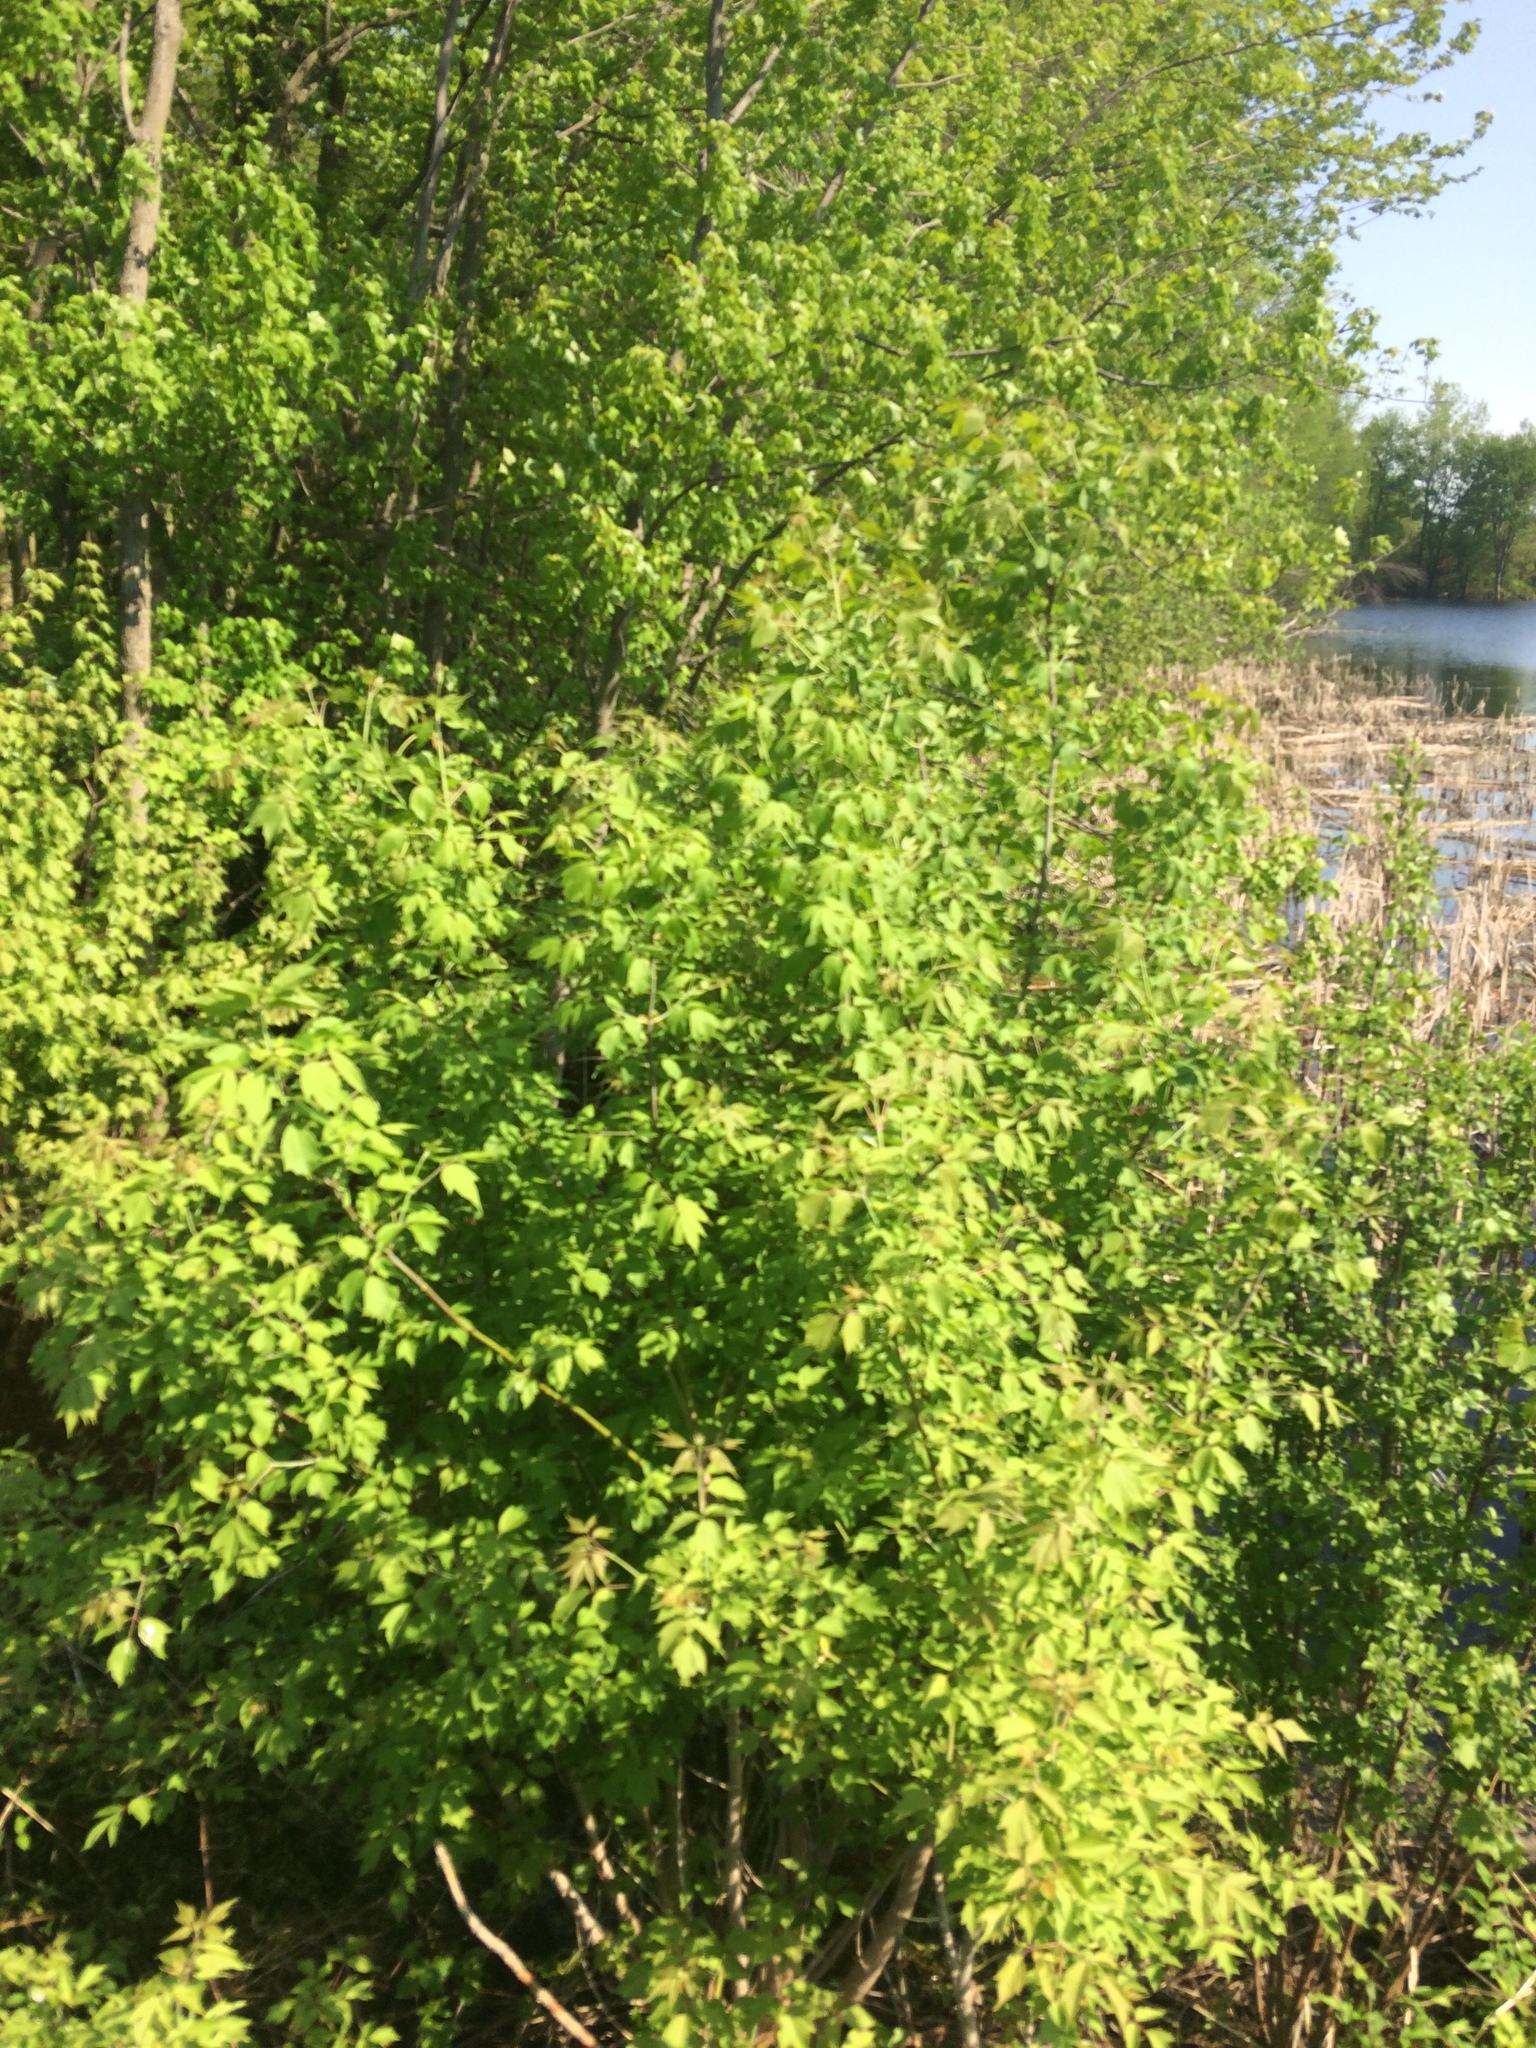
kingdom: Plantae
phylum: Tracheophyta
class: Magnoliopsida
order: Sapindales
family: Sapindaceae
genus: Acer
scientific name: Acer negundo
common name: Ashleaf maple
